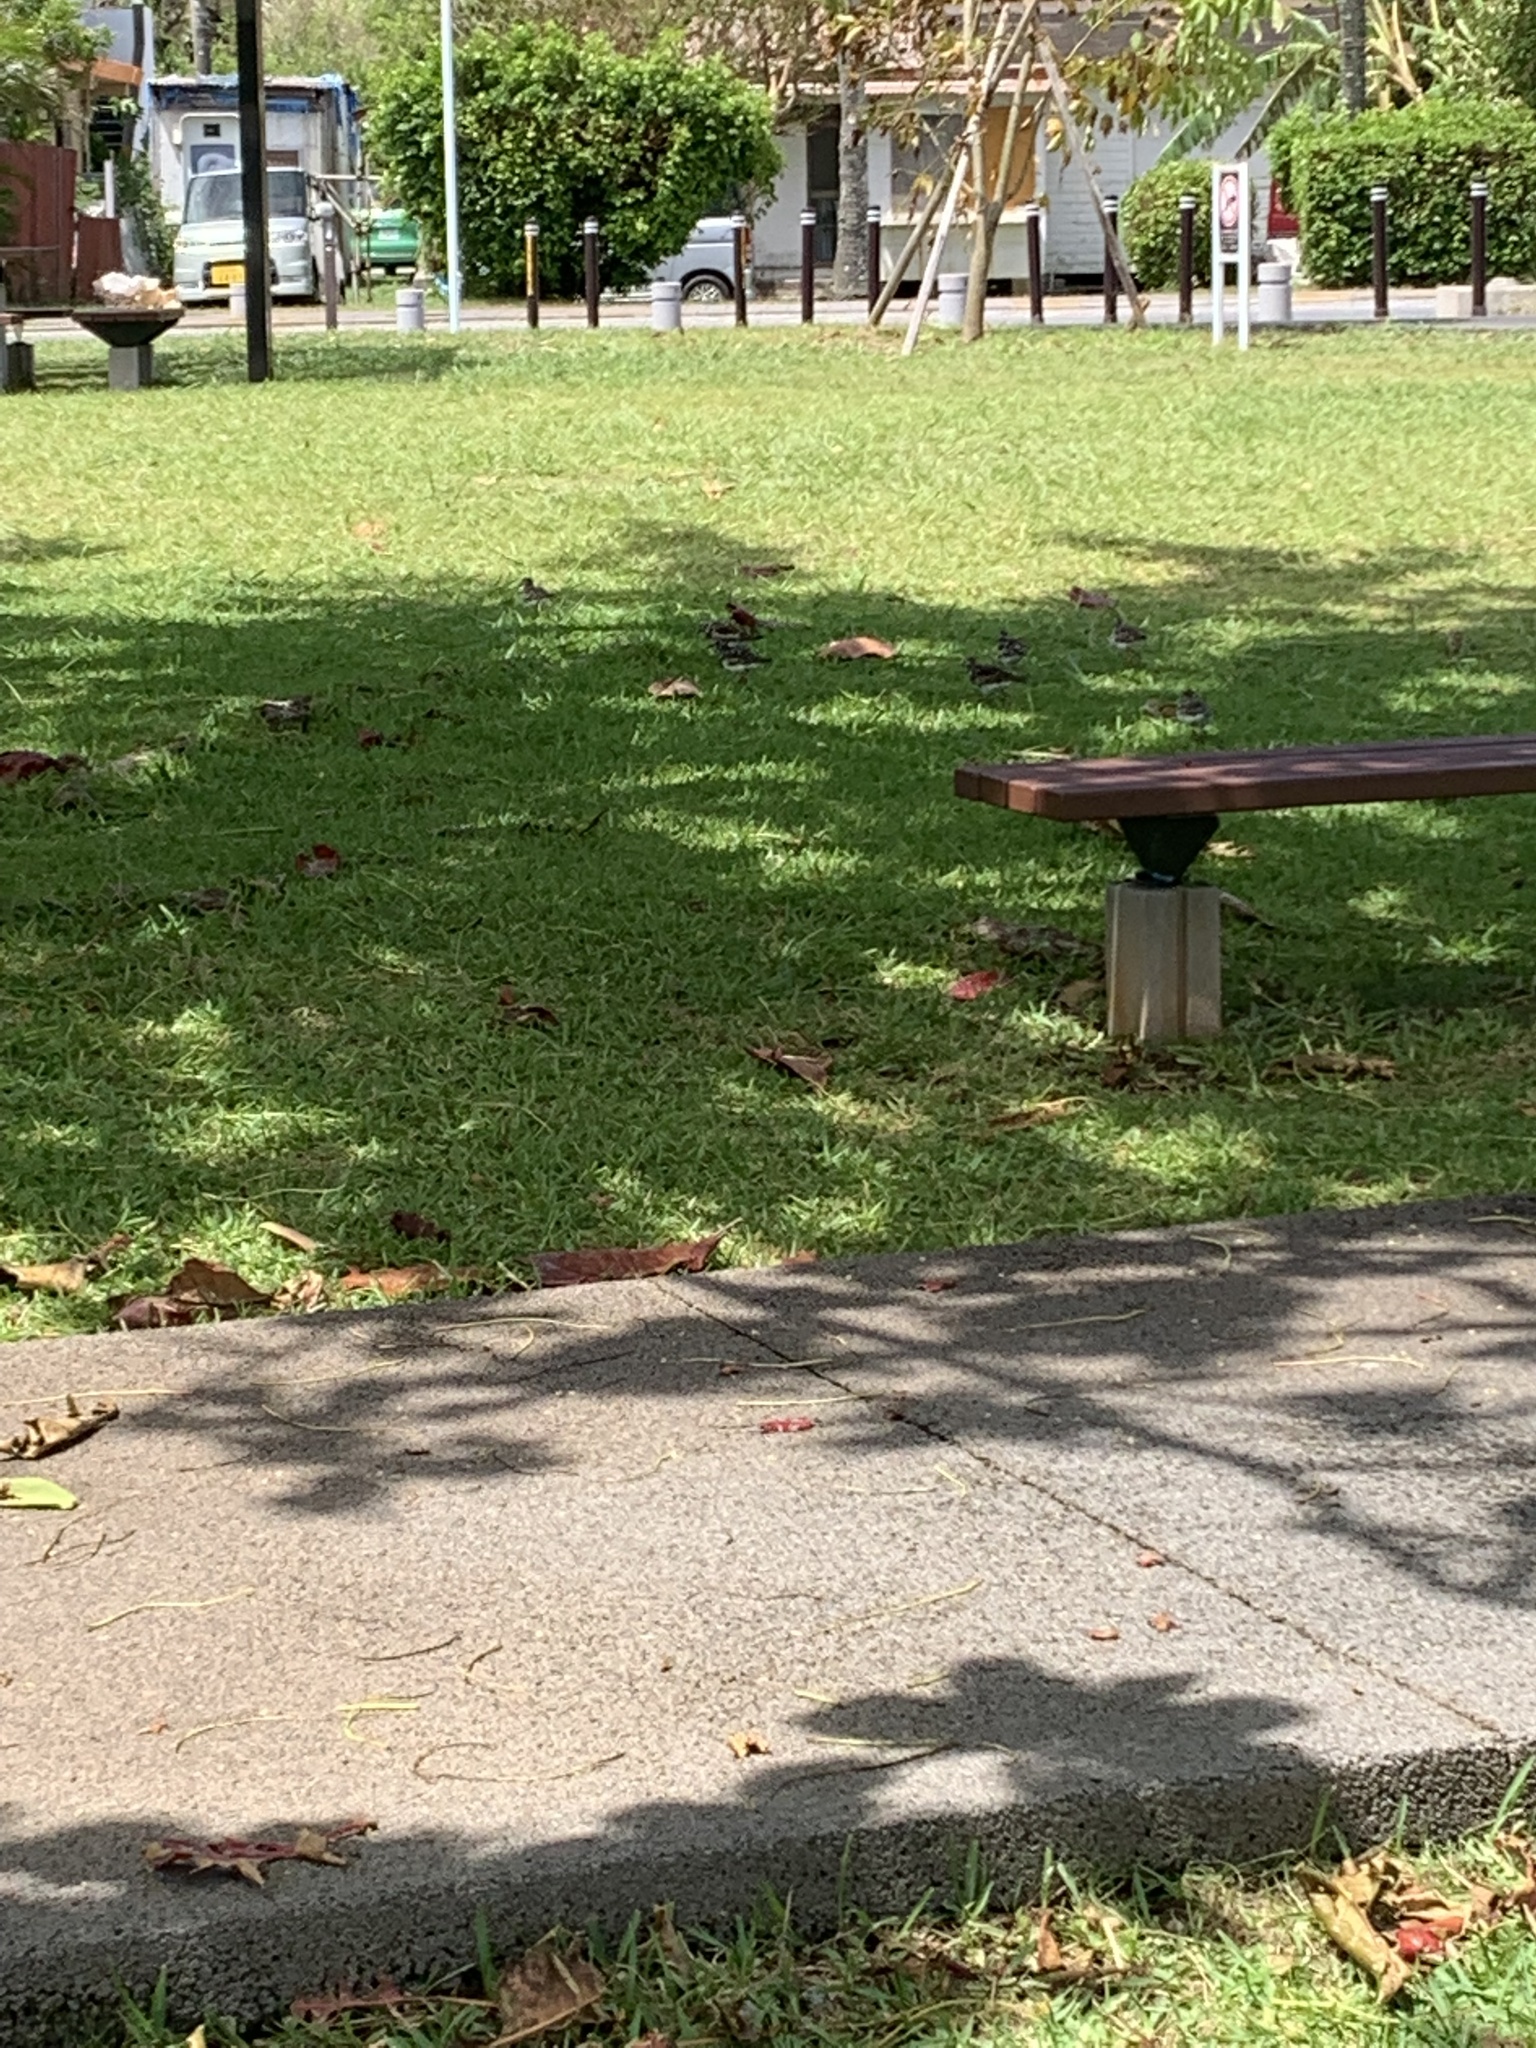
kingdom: Animalia
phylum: Chordata
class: Aves
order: Charadriiformes
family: Scolopacidae
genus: Arenaria
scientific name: Arenaria interpres
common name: Ruddy turnstone
